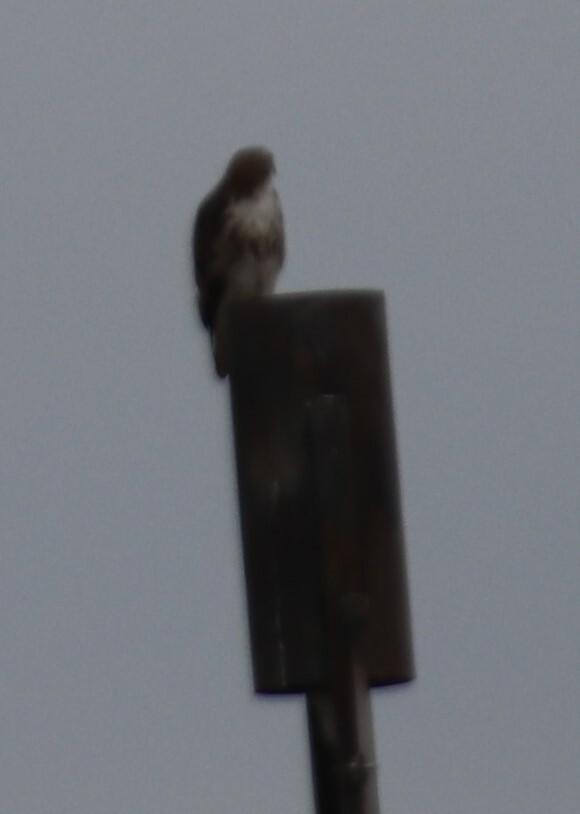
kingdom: Animalia
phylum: Chordata
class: Aves
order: Accipitriformes
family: Accipitridae
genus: Buteo
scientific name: Buteo jamaicensis
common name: Red-tailed hawk
